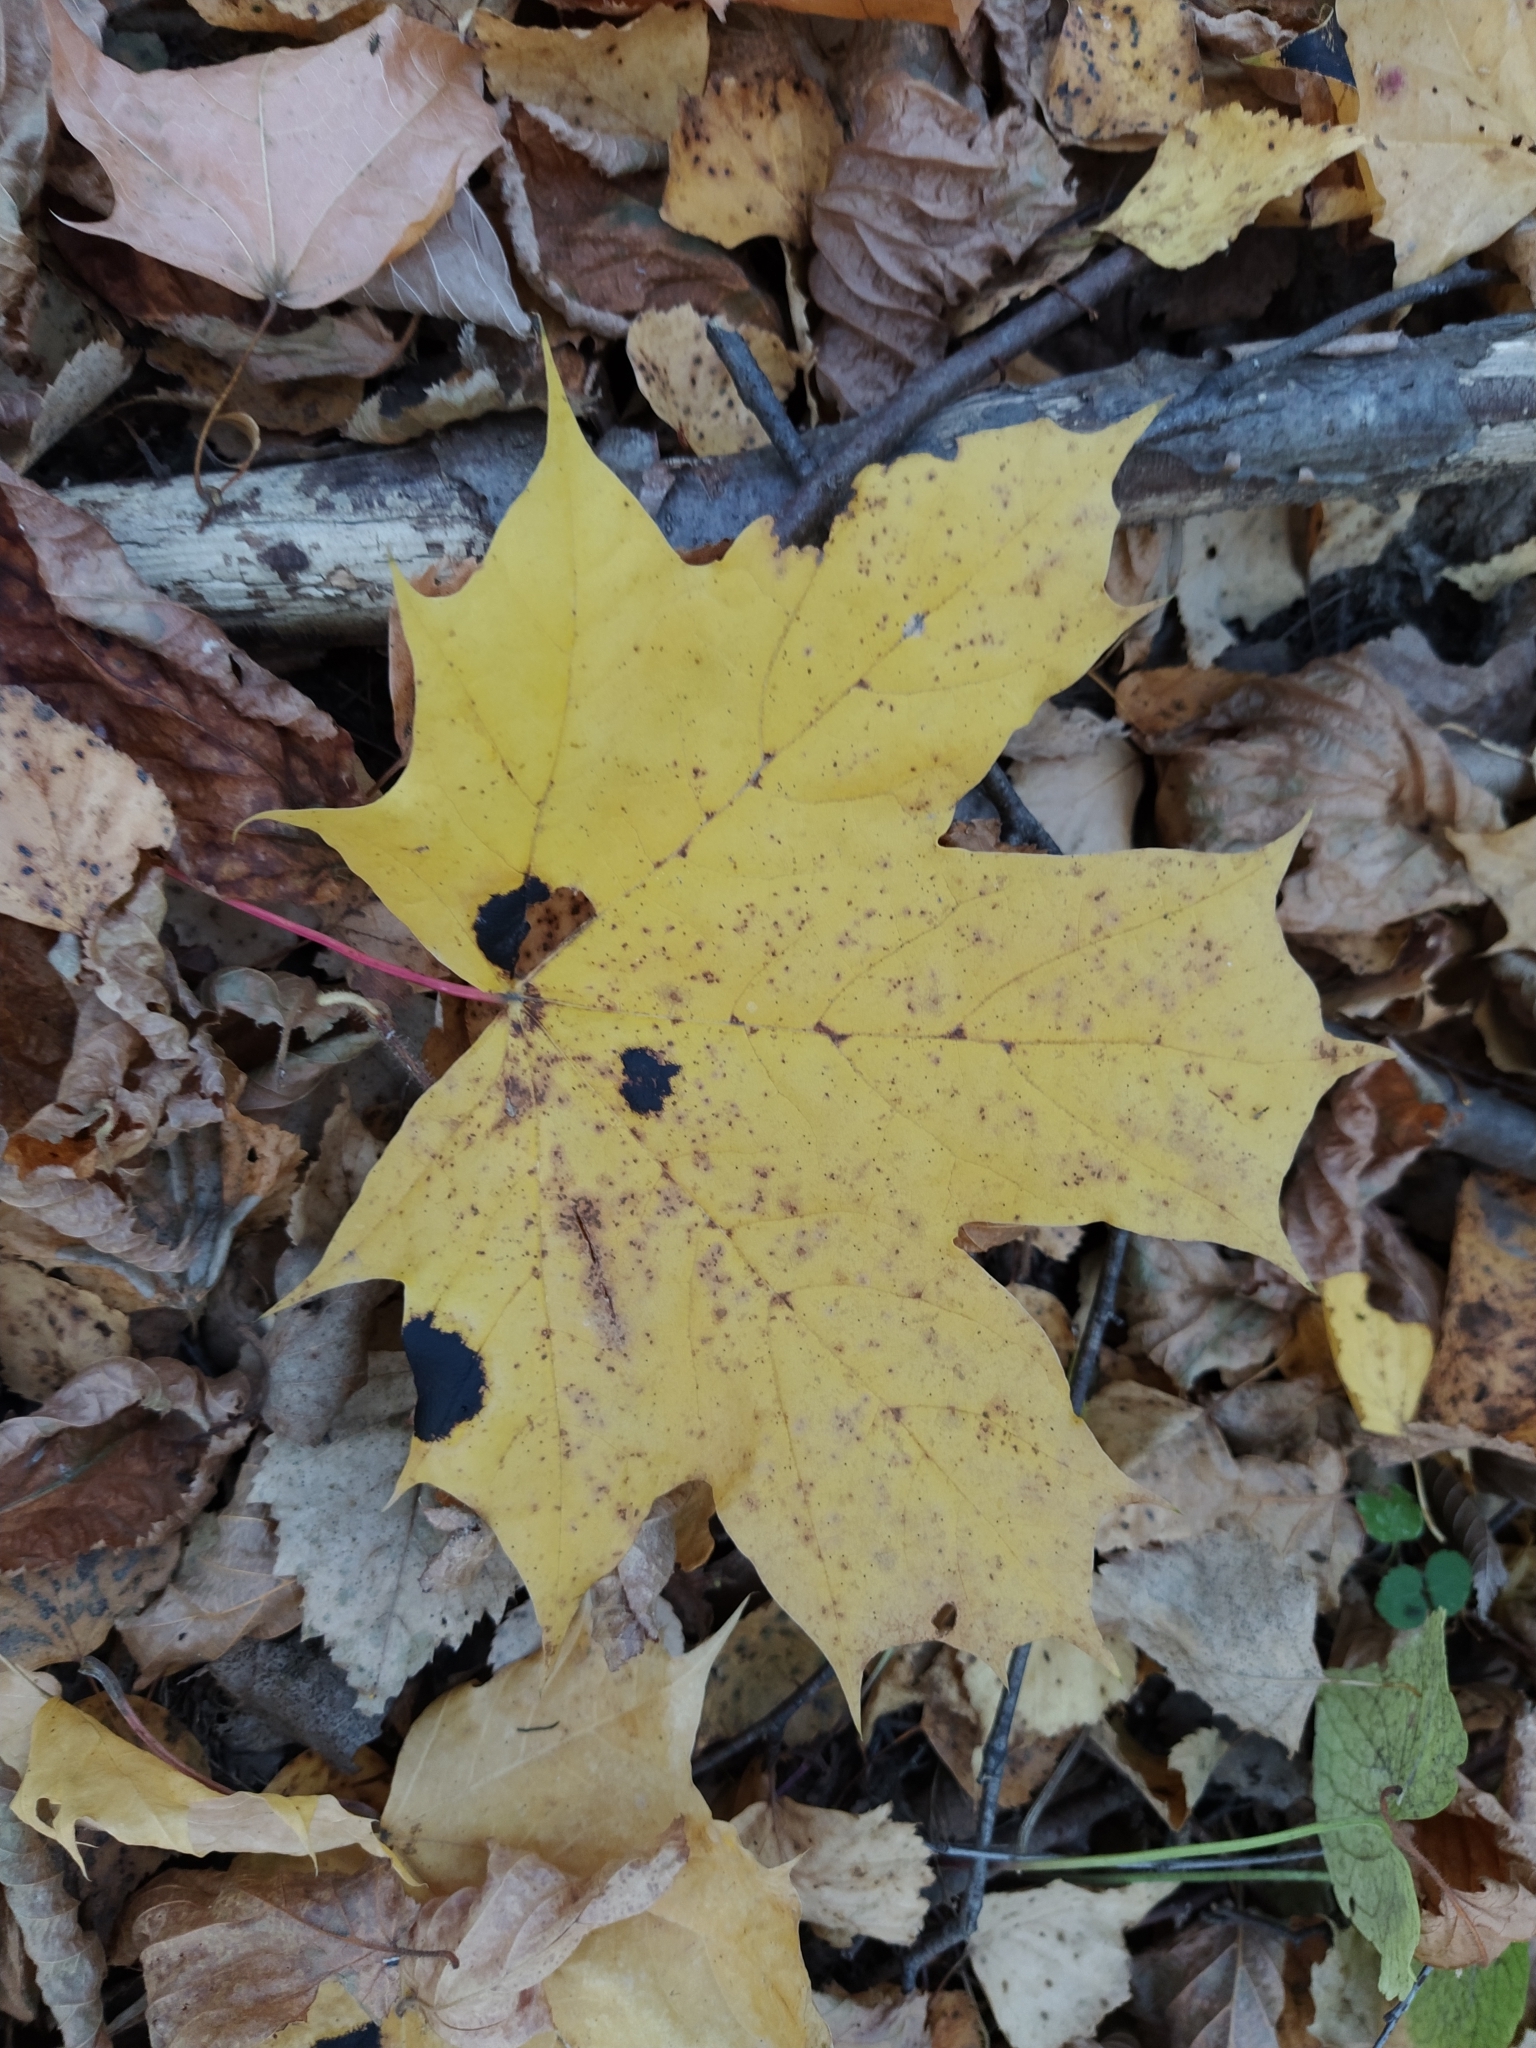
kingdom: Plantae
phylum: Tracheophyta
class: Magnoliopsida
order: Sapindales
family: Sapindaceae
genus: Acer
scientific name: Acer platanoides
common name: Norway maple
